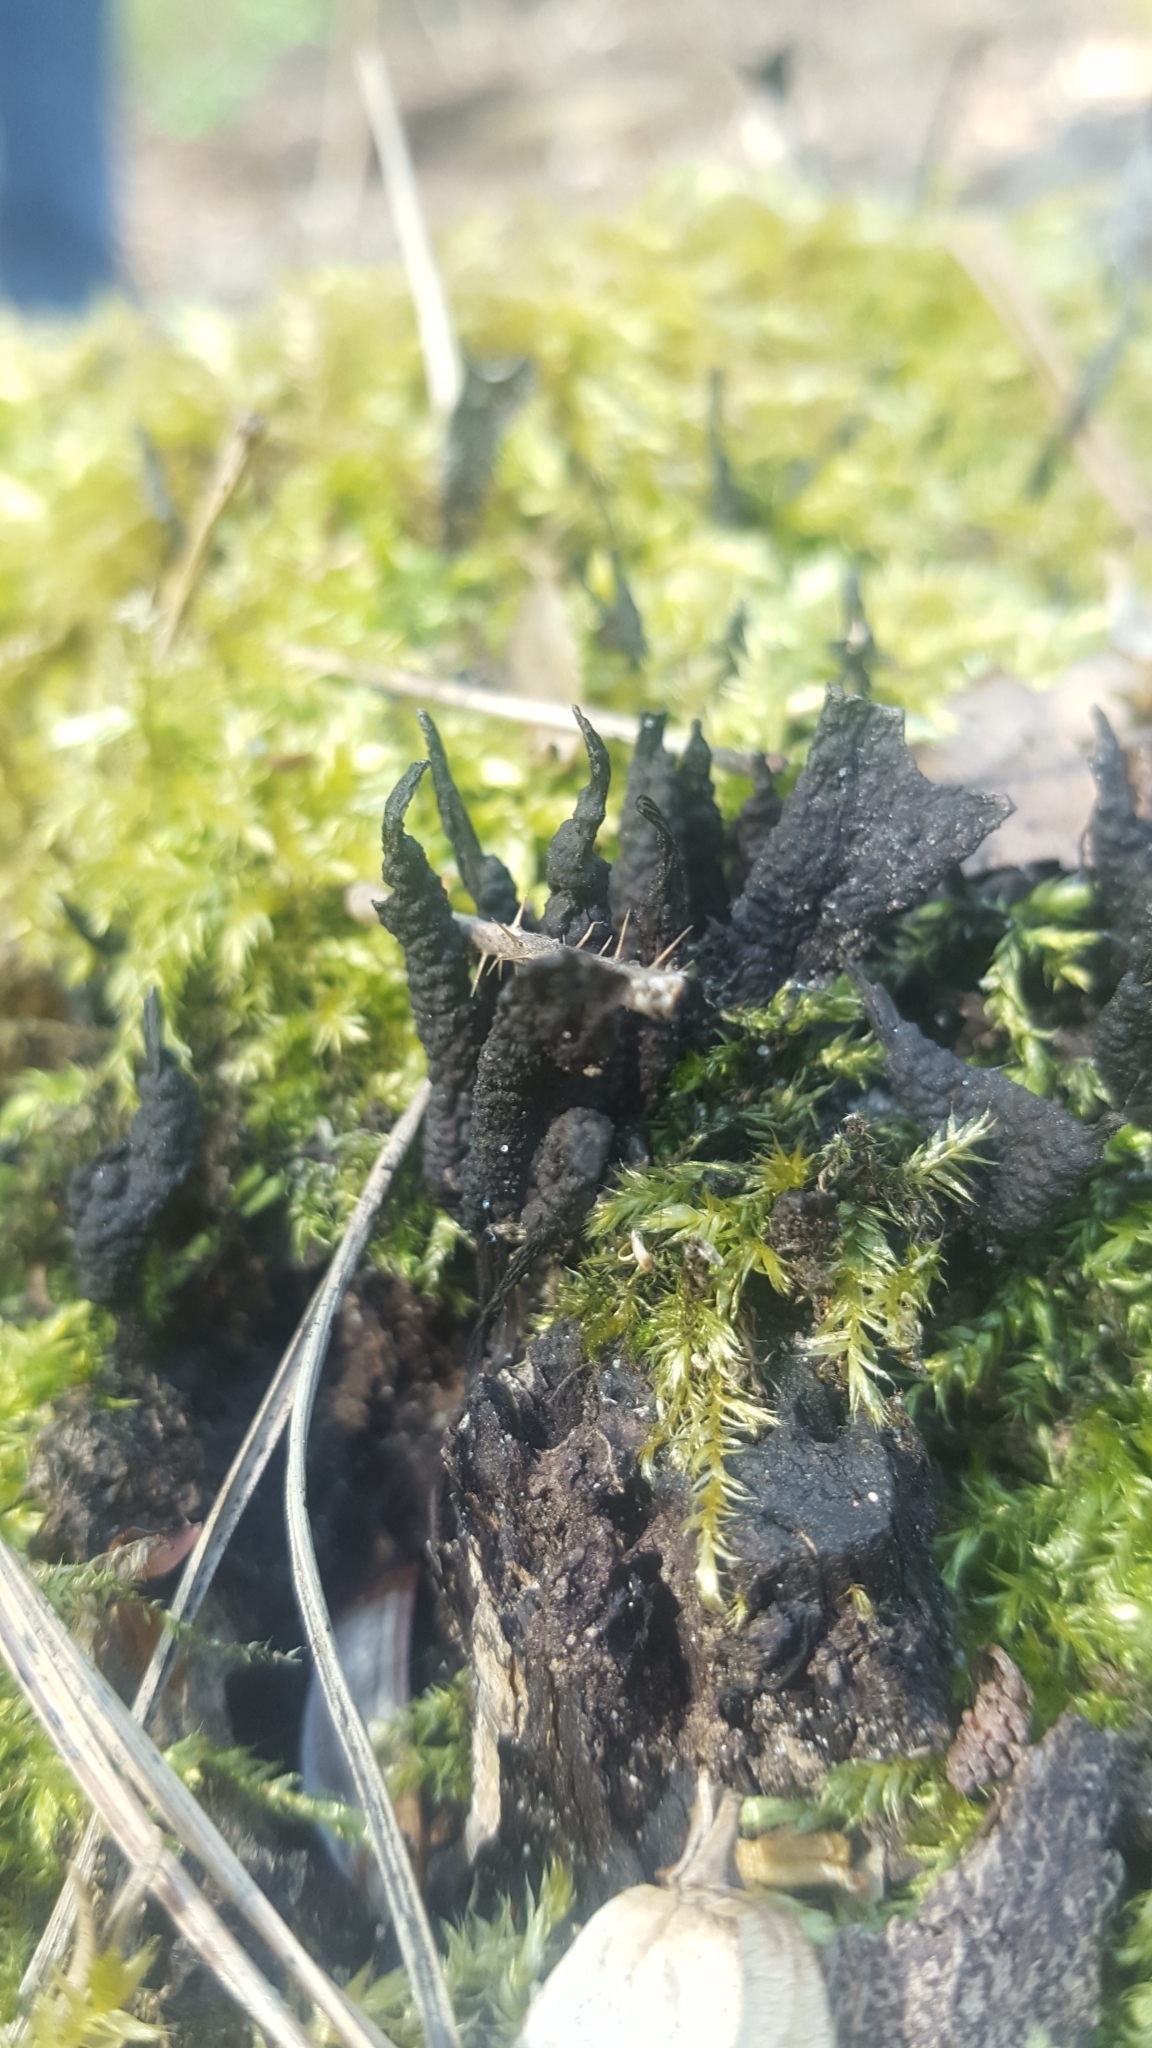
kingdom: Fungi
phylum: Ascomycota
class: Sordariomycetes
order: Xylariales
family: Xylariaceae
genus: Xylaria
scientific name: Xylaria hypoxylon
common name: Candle-snuff fungus
